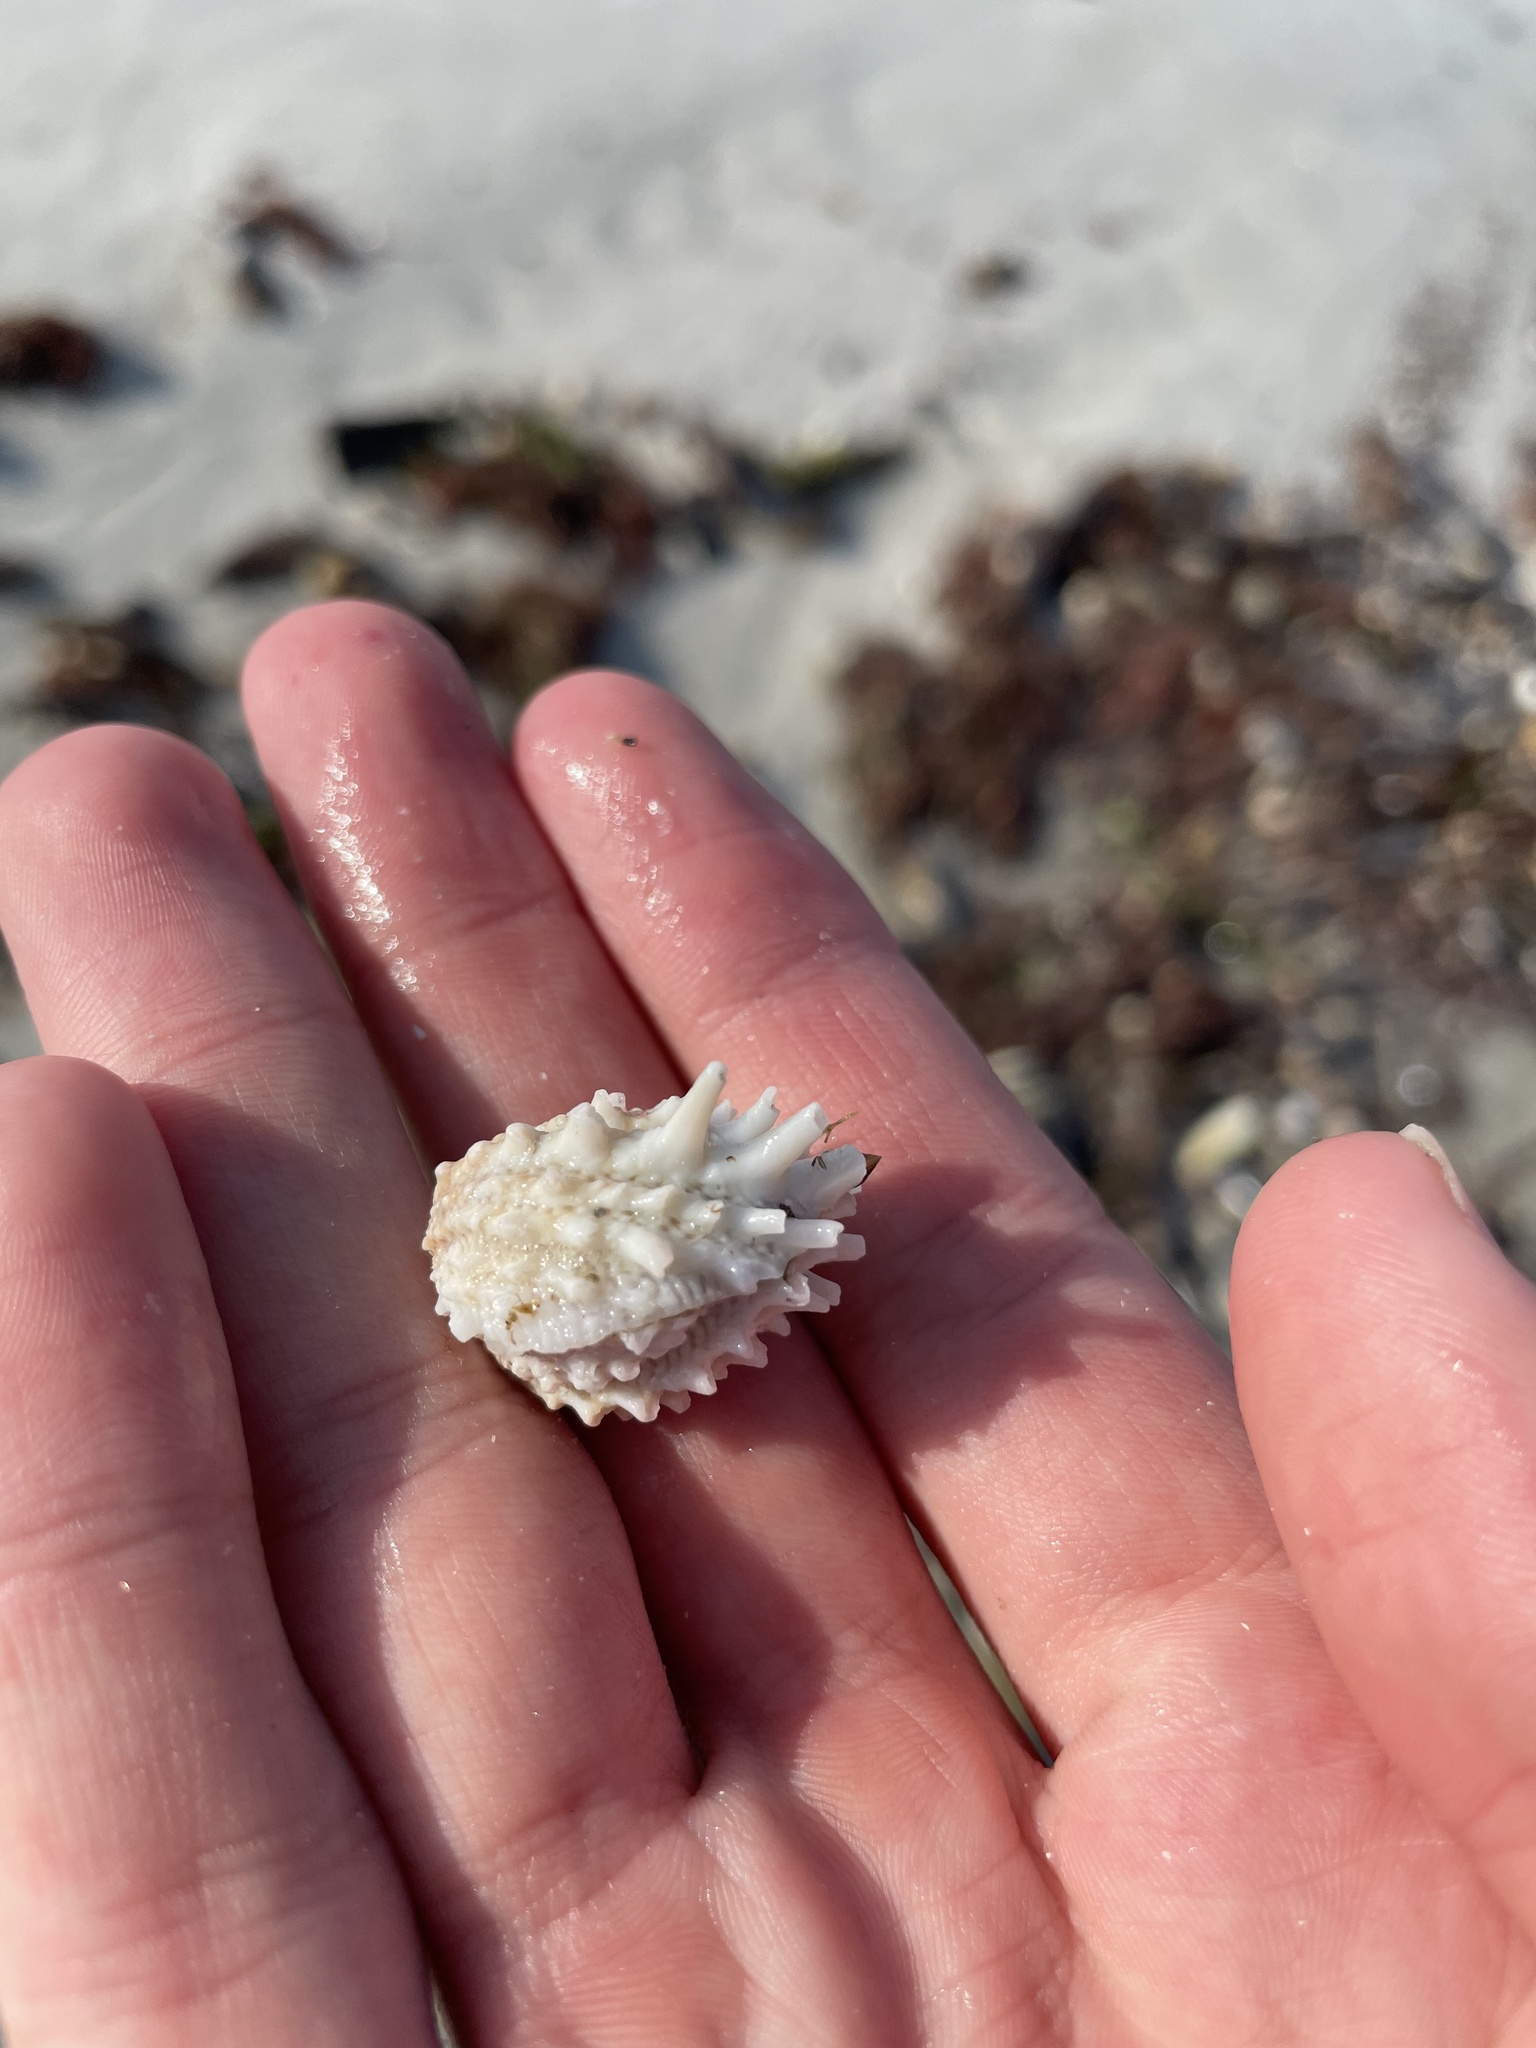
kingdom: Animalia
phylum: Mollusca
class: Bivalvia
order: Venerida
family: Chamidae
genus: Arcinella
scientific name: Arcinella cornuta
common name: Florida spiny jewel box
